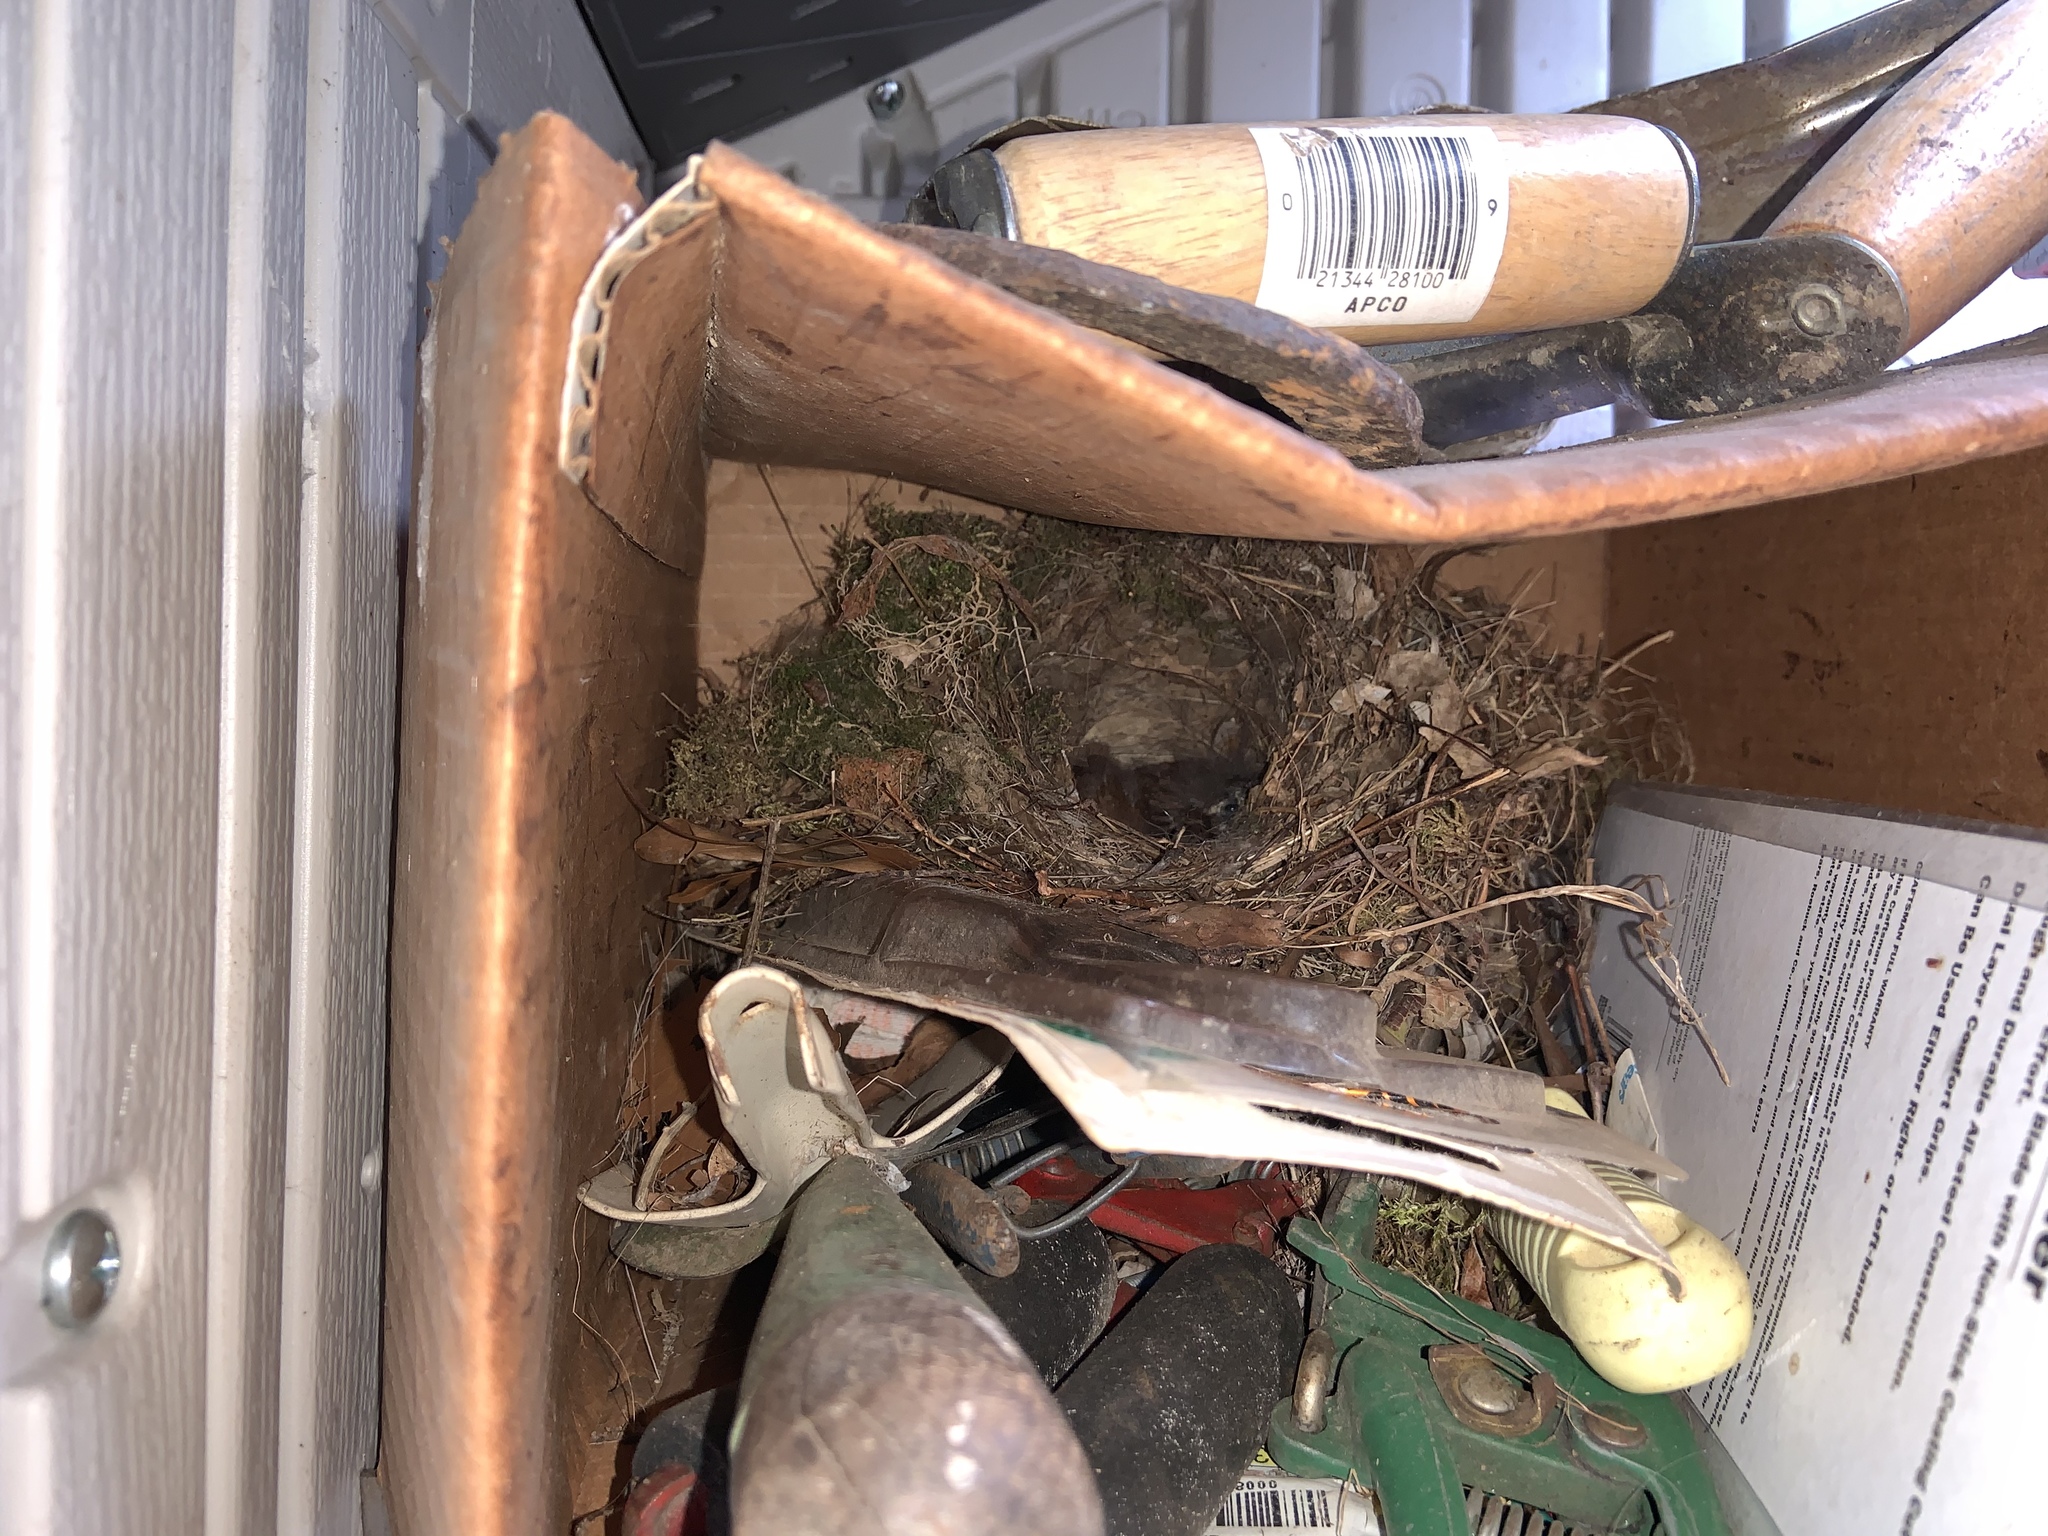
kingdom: Animalia
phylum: Chordata
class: Aves
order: Passeriformes
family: Troglodytidae
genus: Thryothorus
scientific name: Thryothorus ludovicianus
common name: Carolina wren
